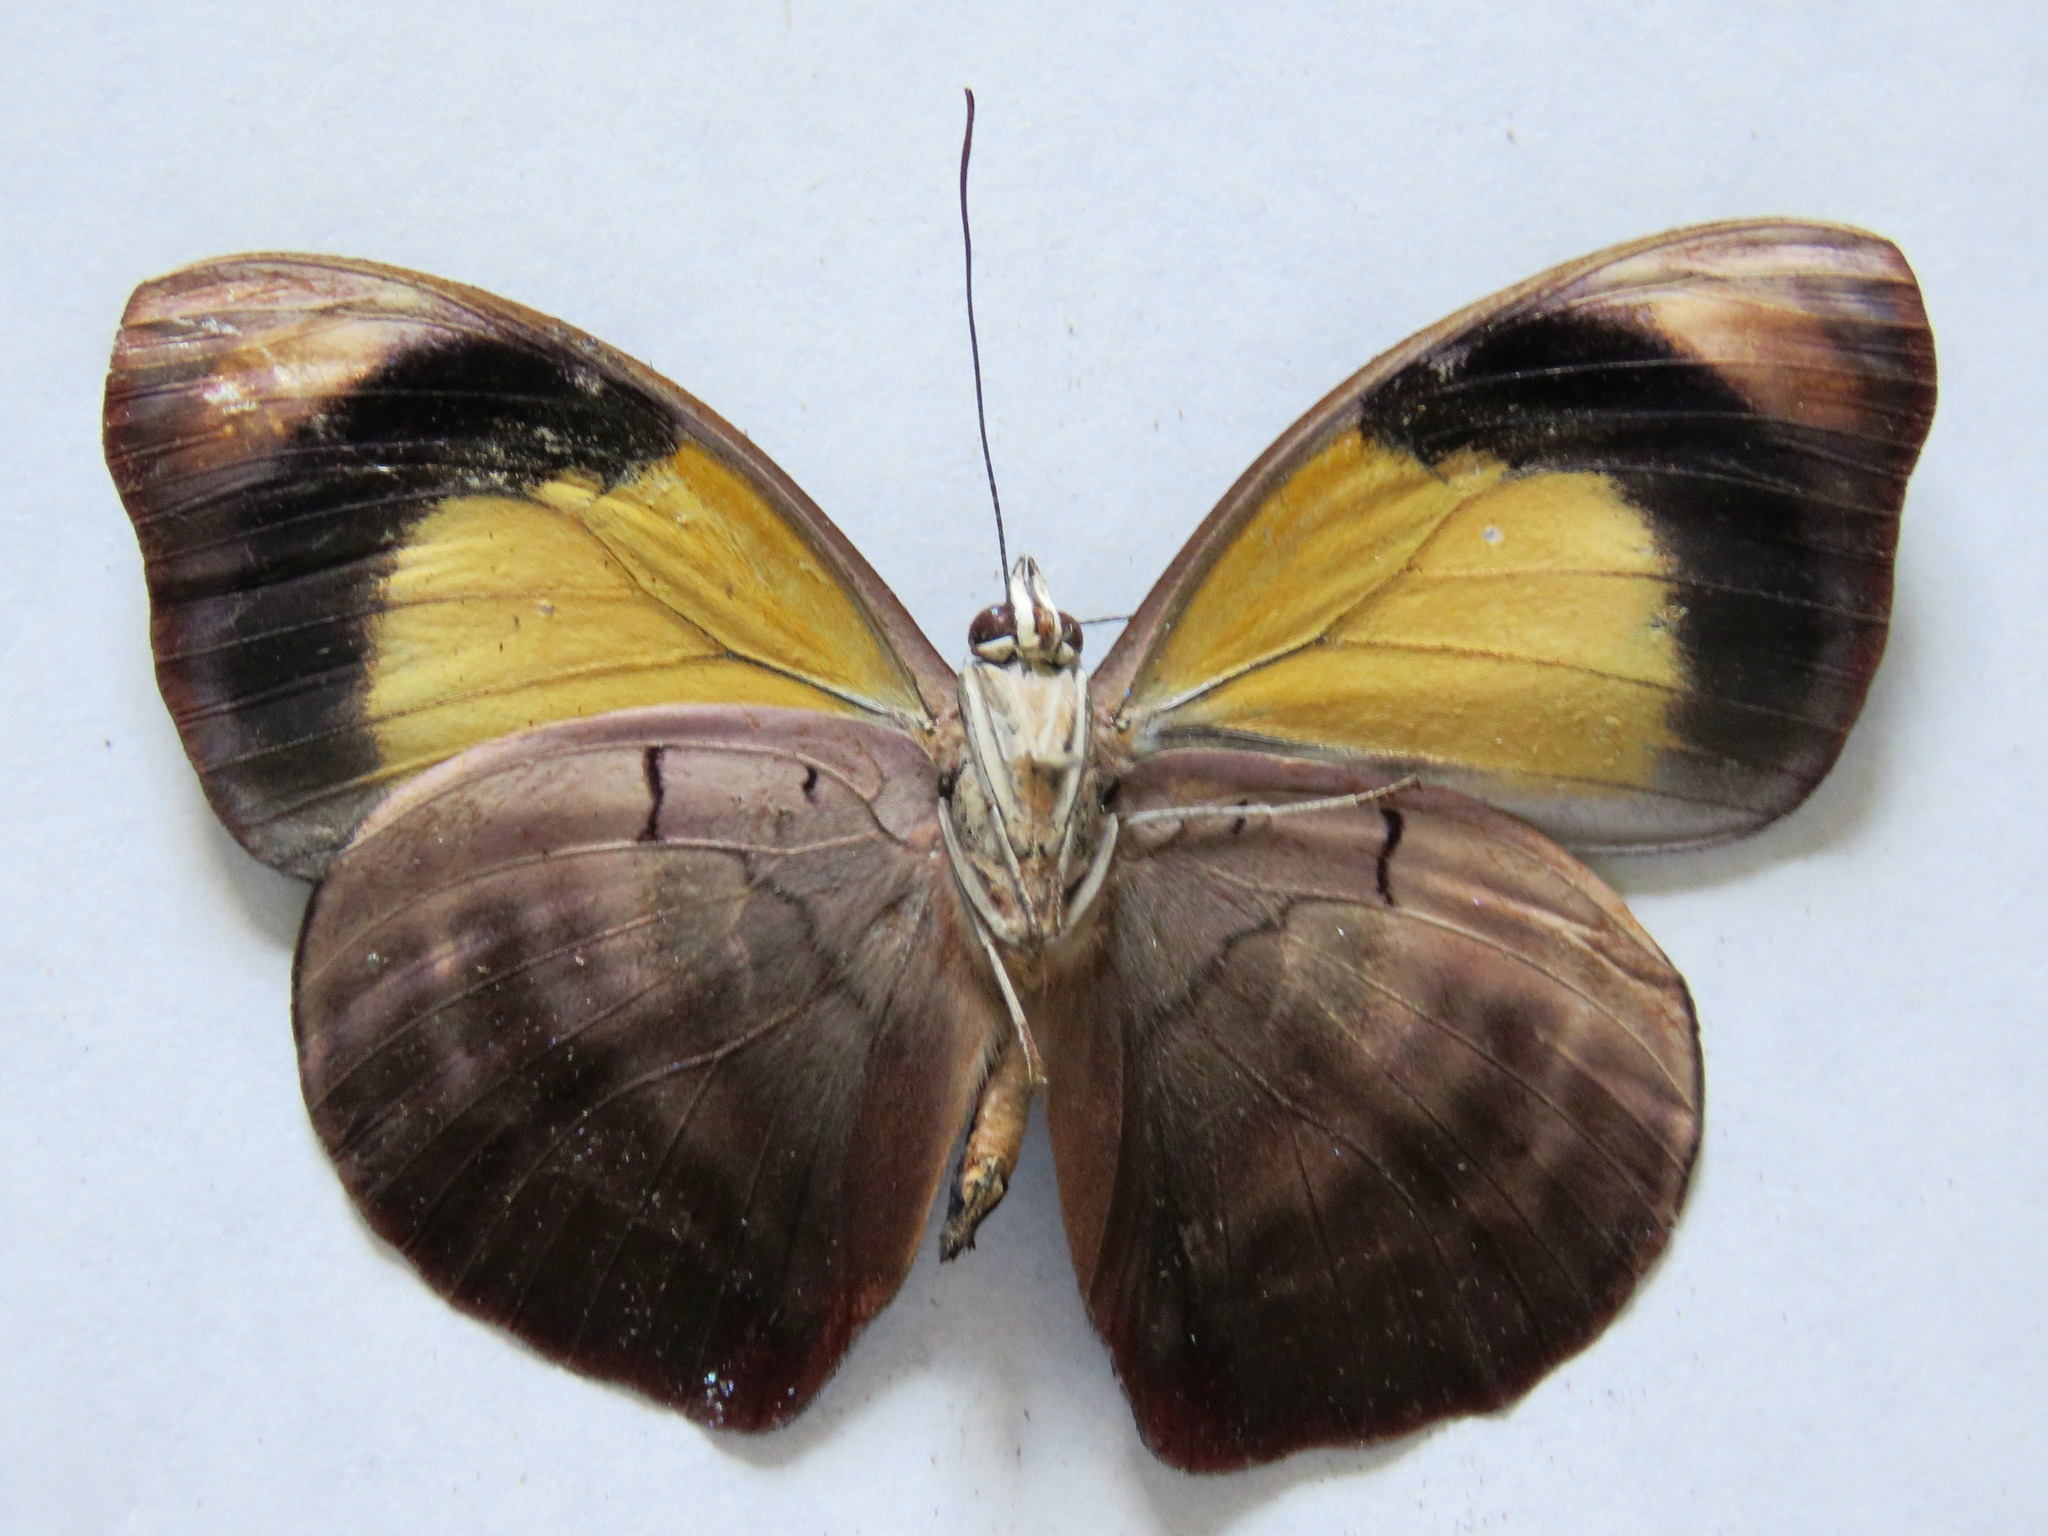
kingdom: Animalia
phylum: Arthropoda
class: Insecta
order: Lepidoptera
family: Nymphalidae
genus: Catonephele
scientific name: Catonephele numilia
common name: Blue-frosted banner
